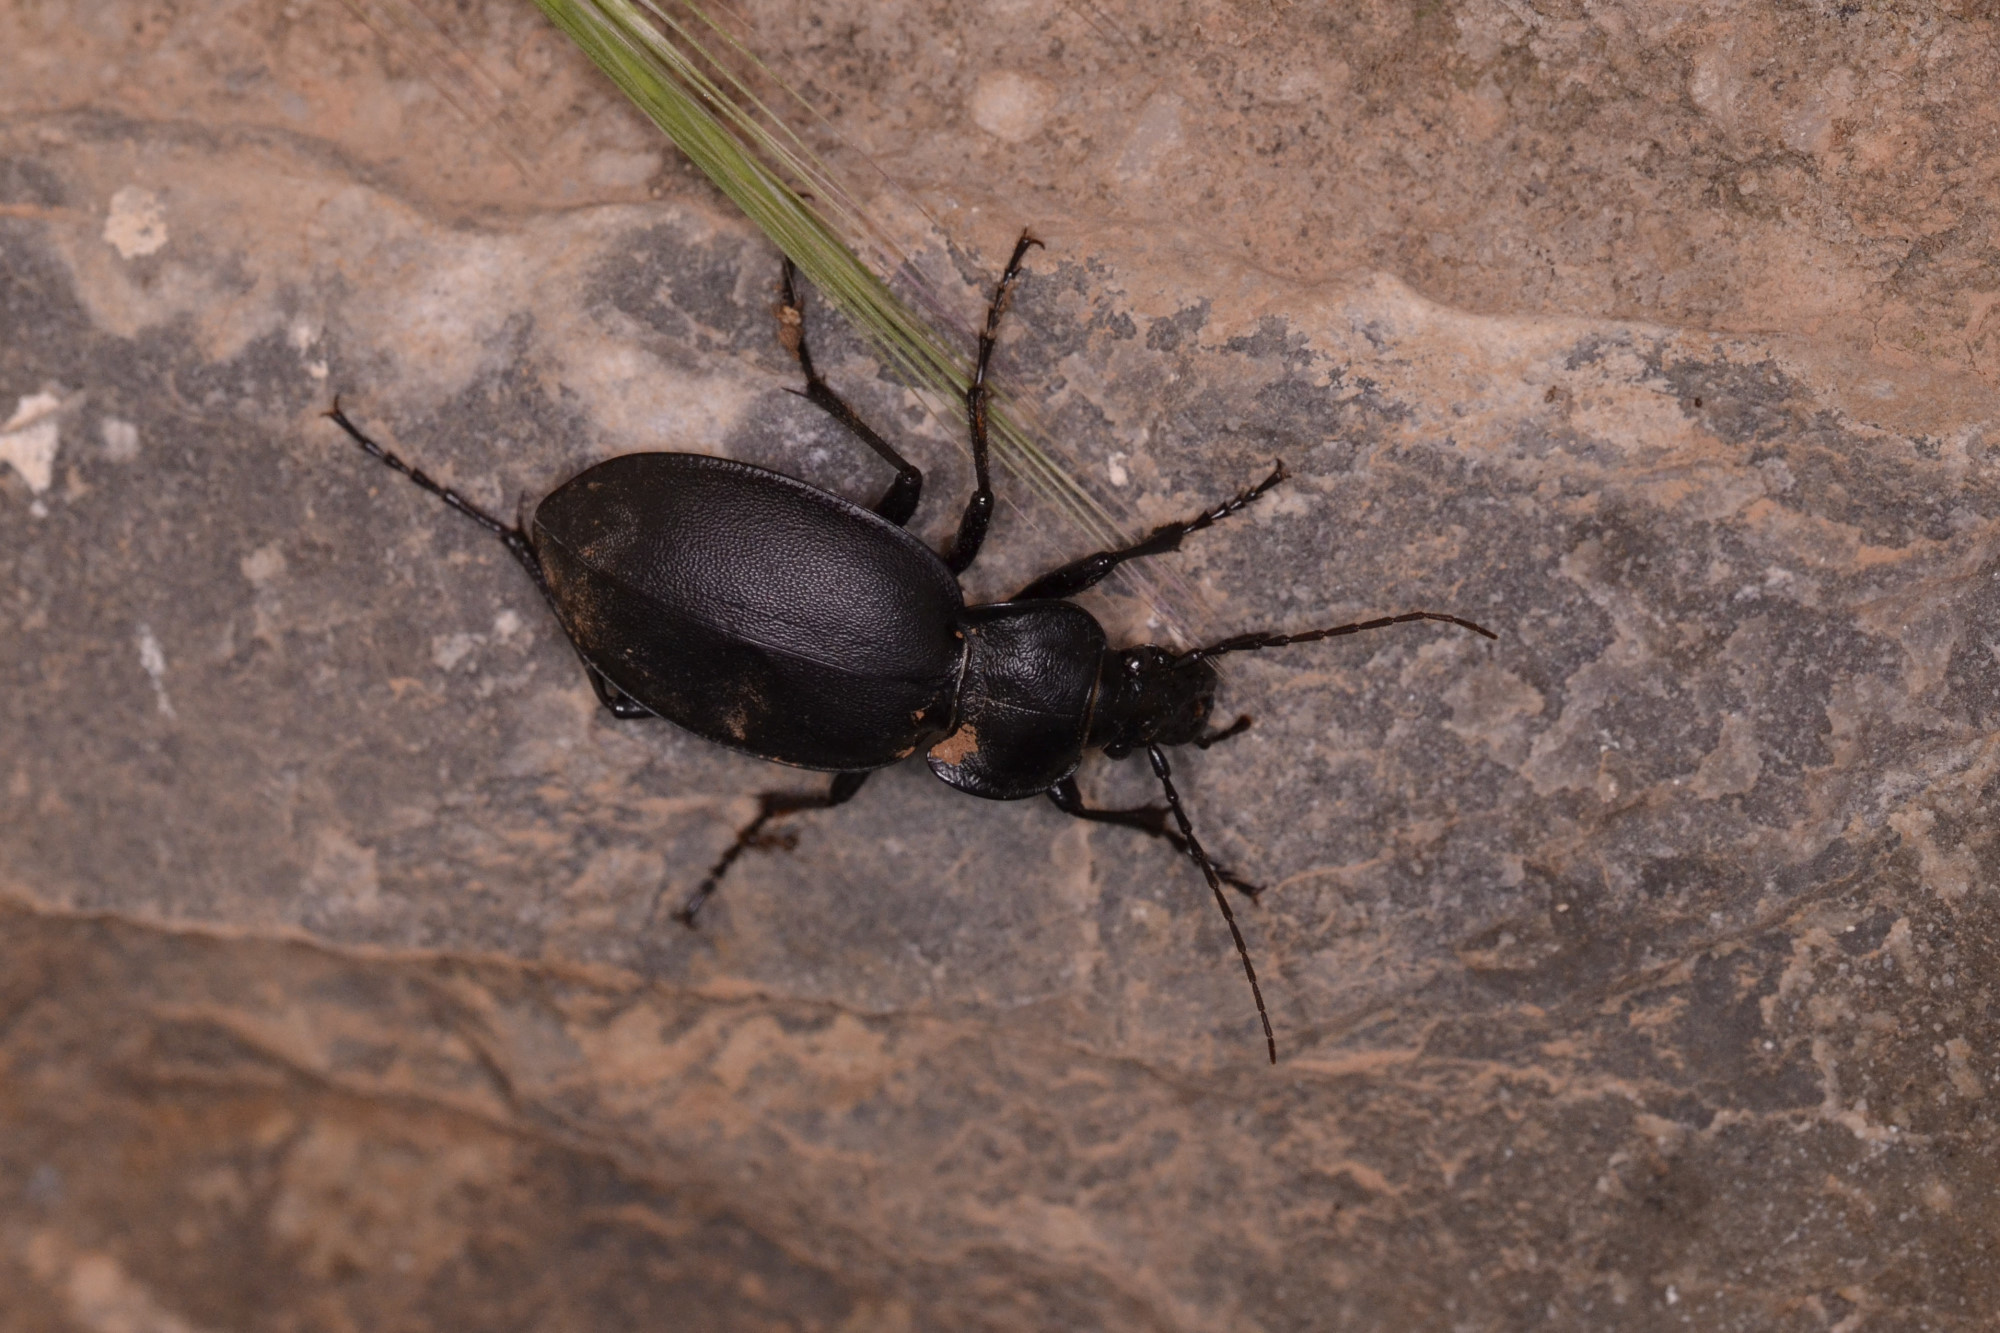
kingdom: Animalia
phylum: Arthropoda
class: Insecta
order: Coleoptera
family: Carabidae
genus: Carabus
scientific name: Carabus banonii
